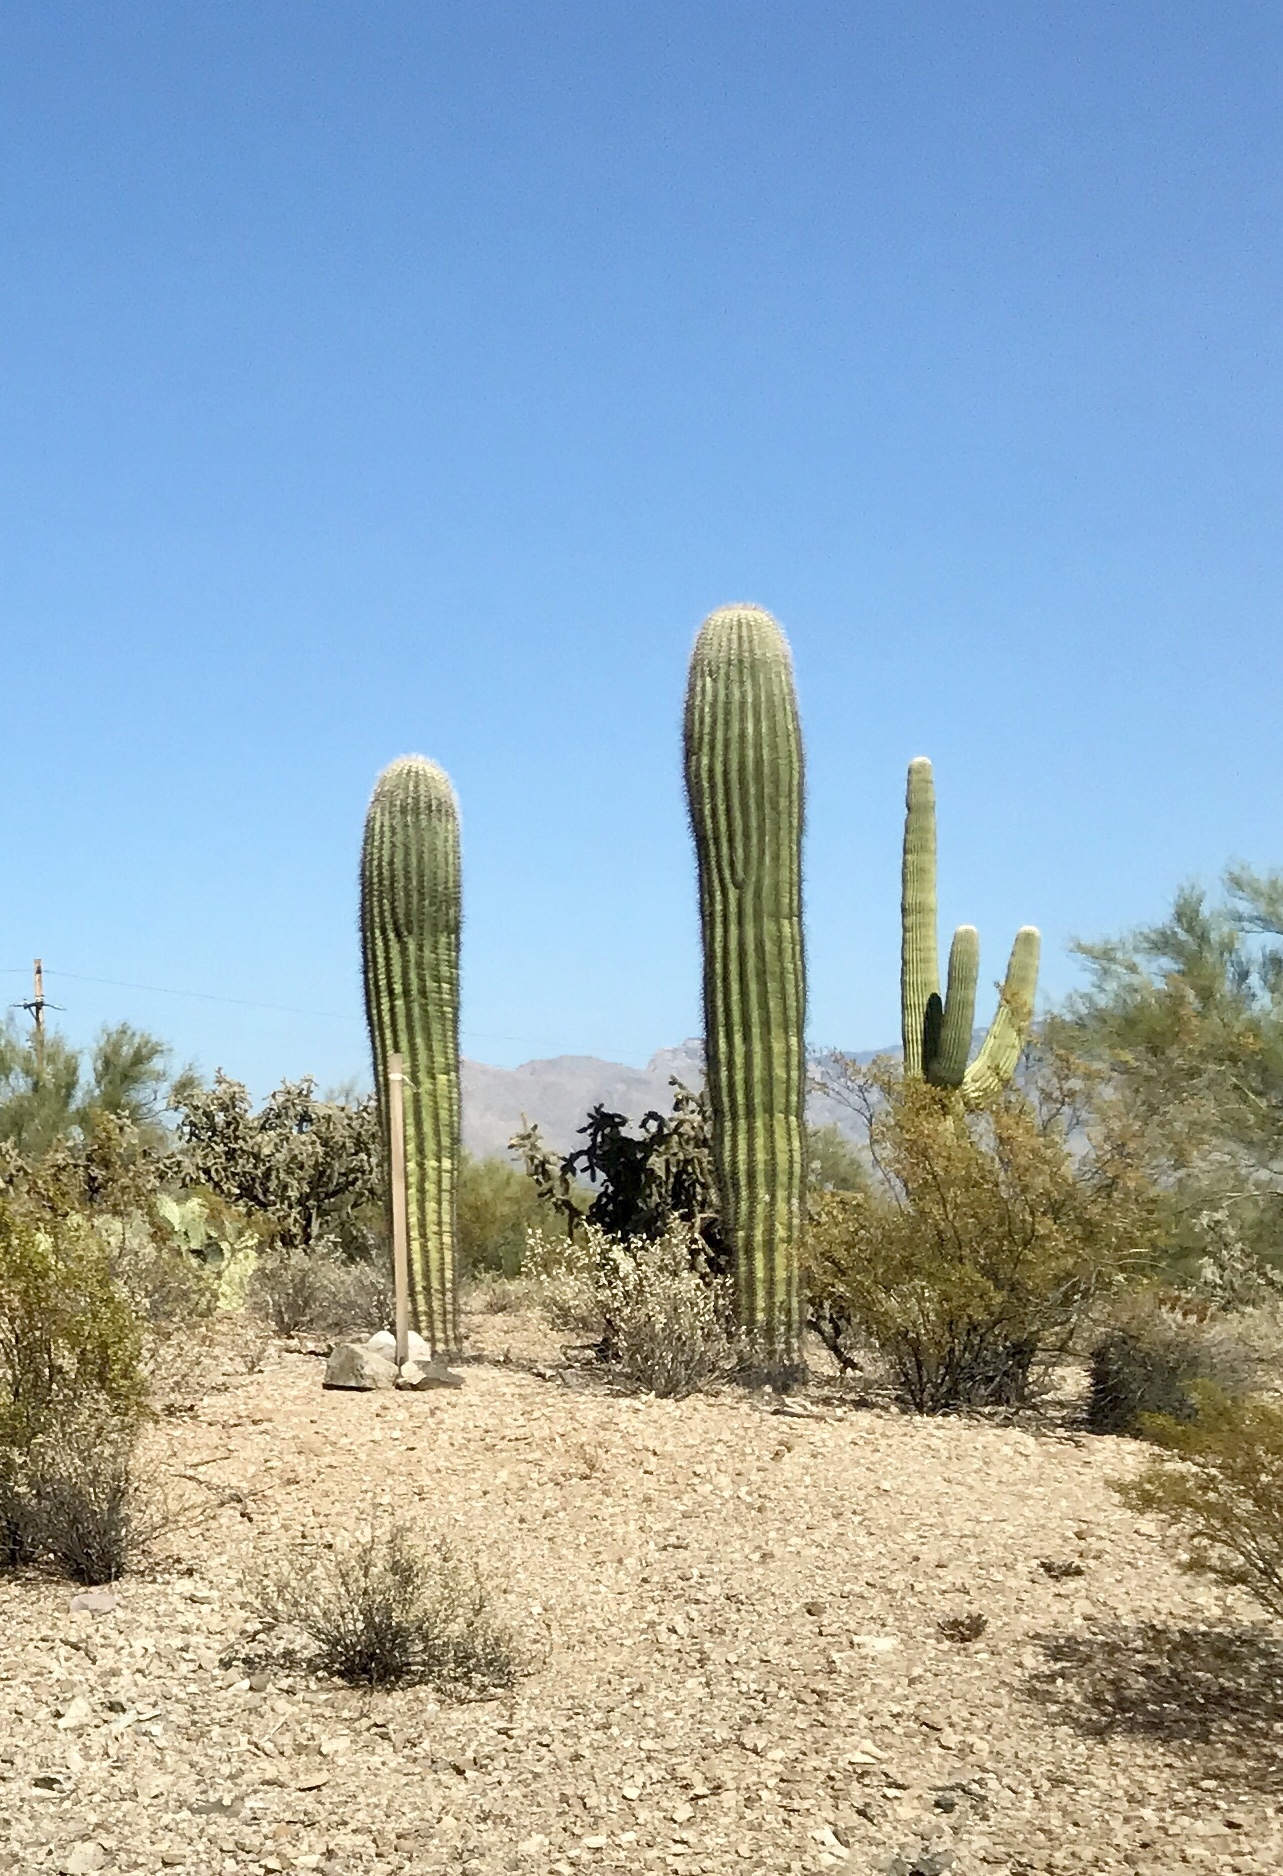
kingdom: Plantae
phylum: Tracheophyta
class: Magnoliopsida
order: Caryophyllales
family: Cactaceae
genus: Carnegiea
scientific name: Carnegiea gigantea
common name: Saguaro
